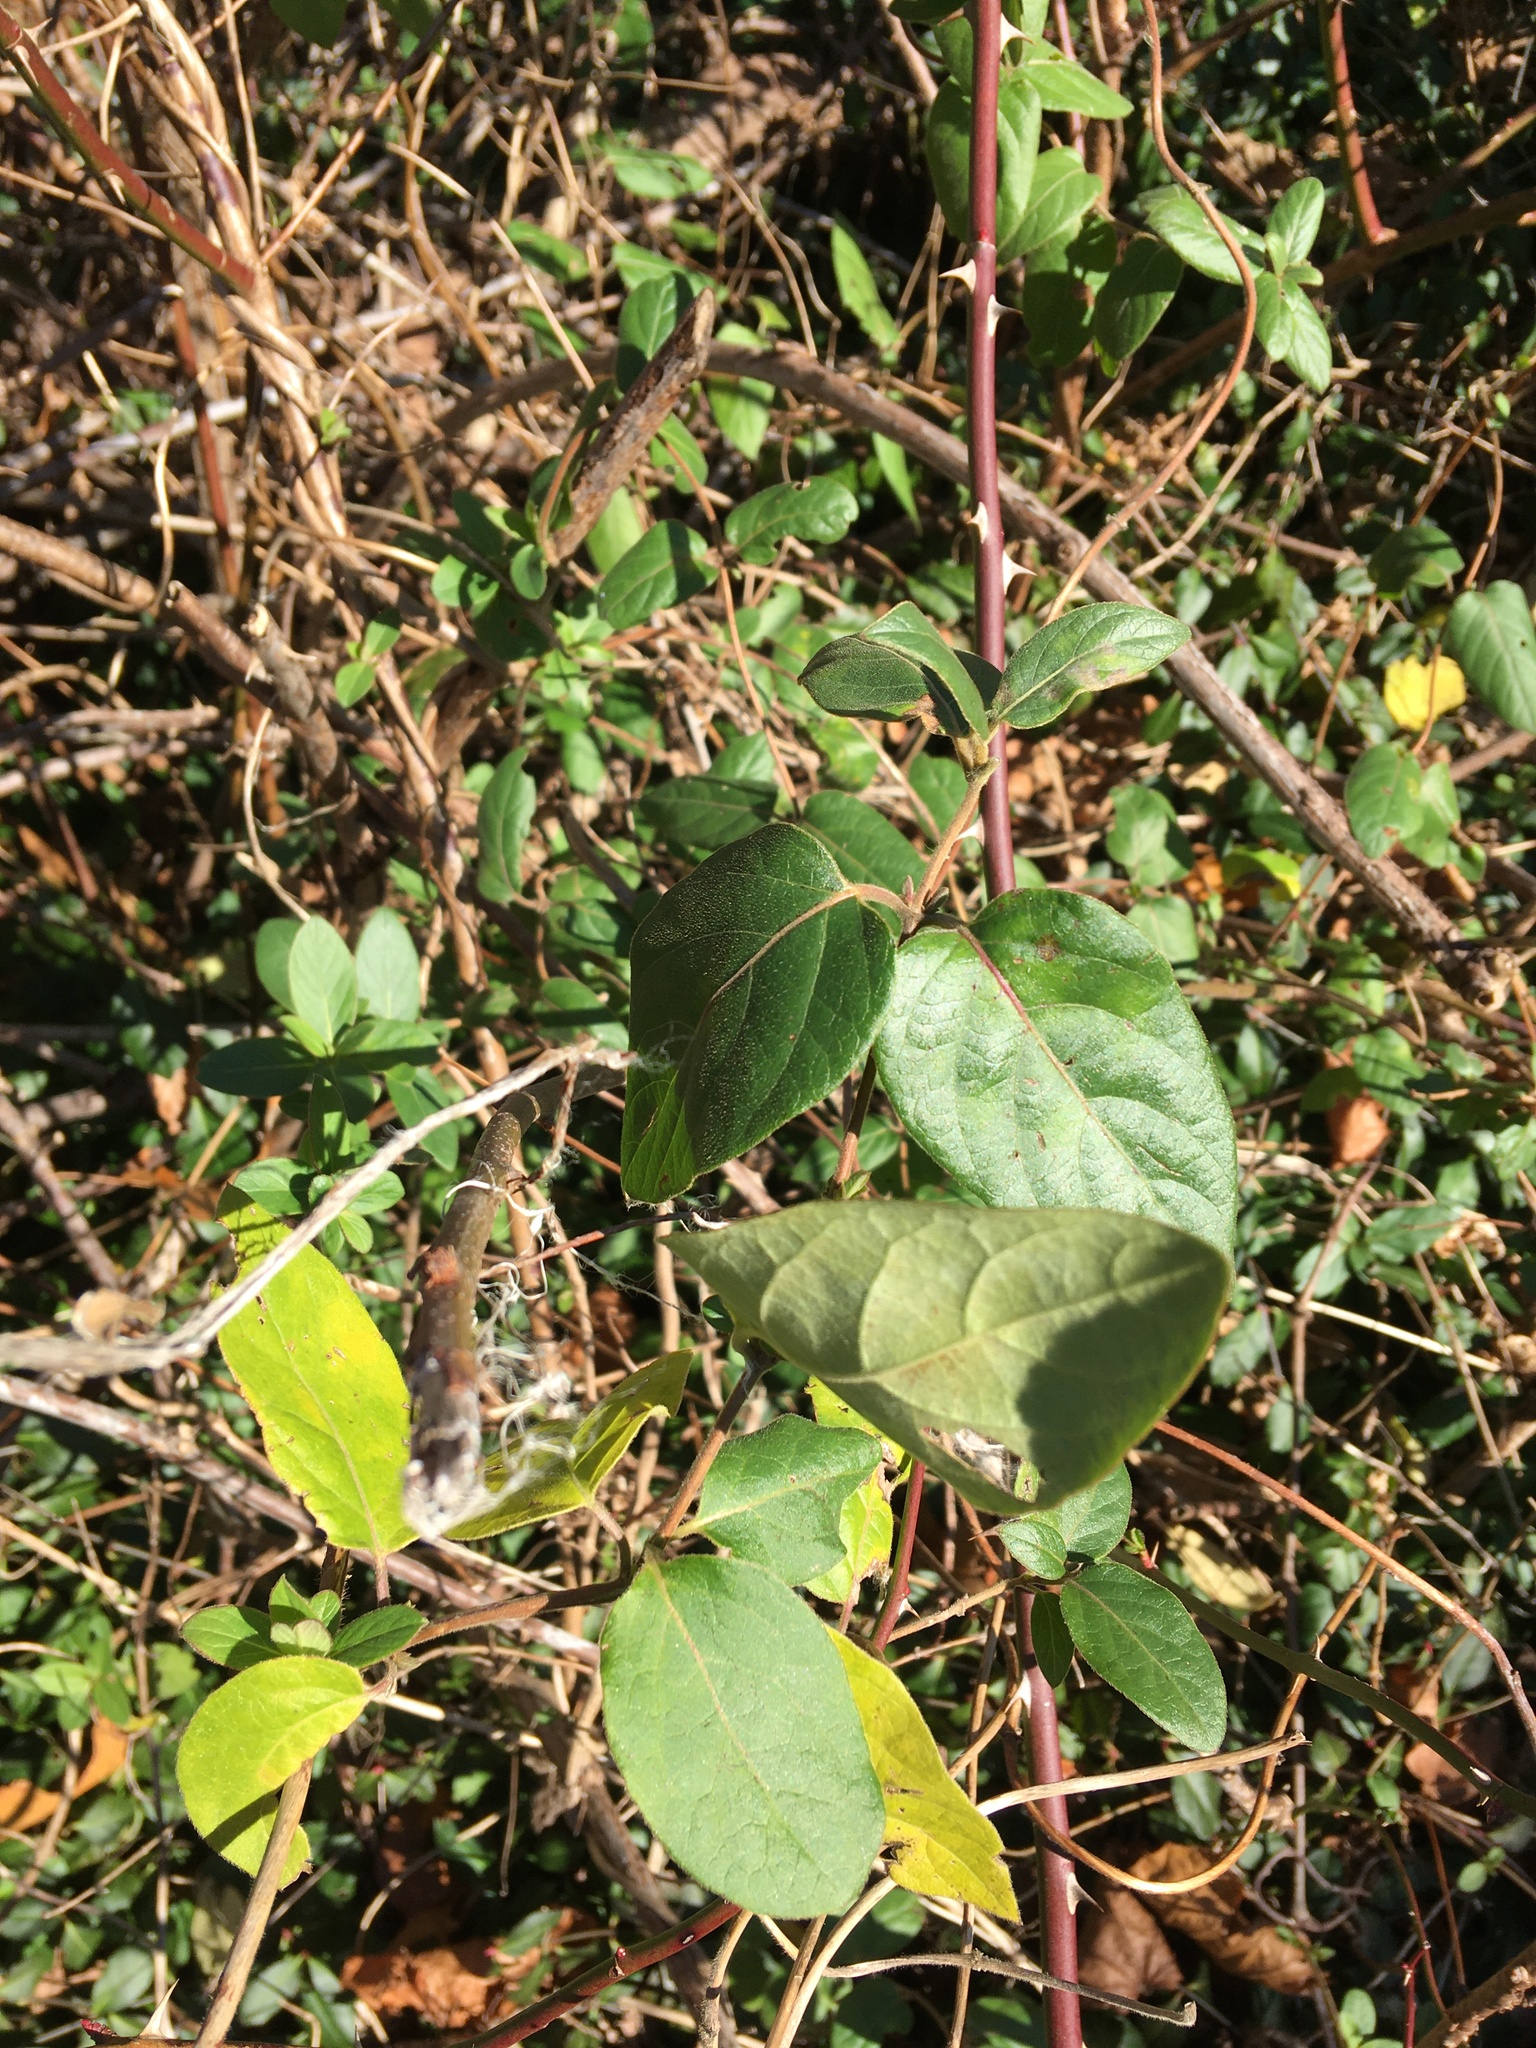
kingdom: Plantae
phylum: Tracheophyta
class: Magnoliopsida
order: Dipsacales
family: Caprifoliaceae
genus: Lonicera
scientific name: Lonicera japonica
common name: Japanese honeysuckle
